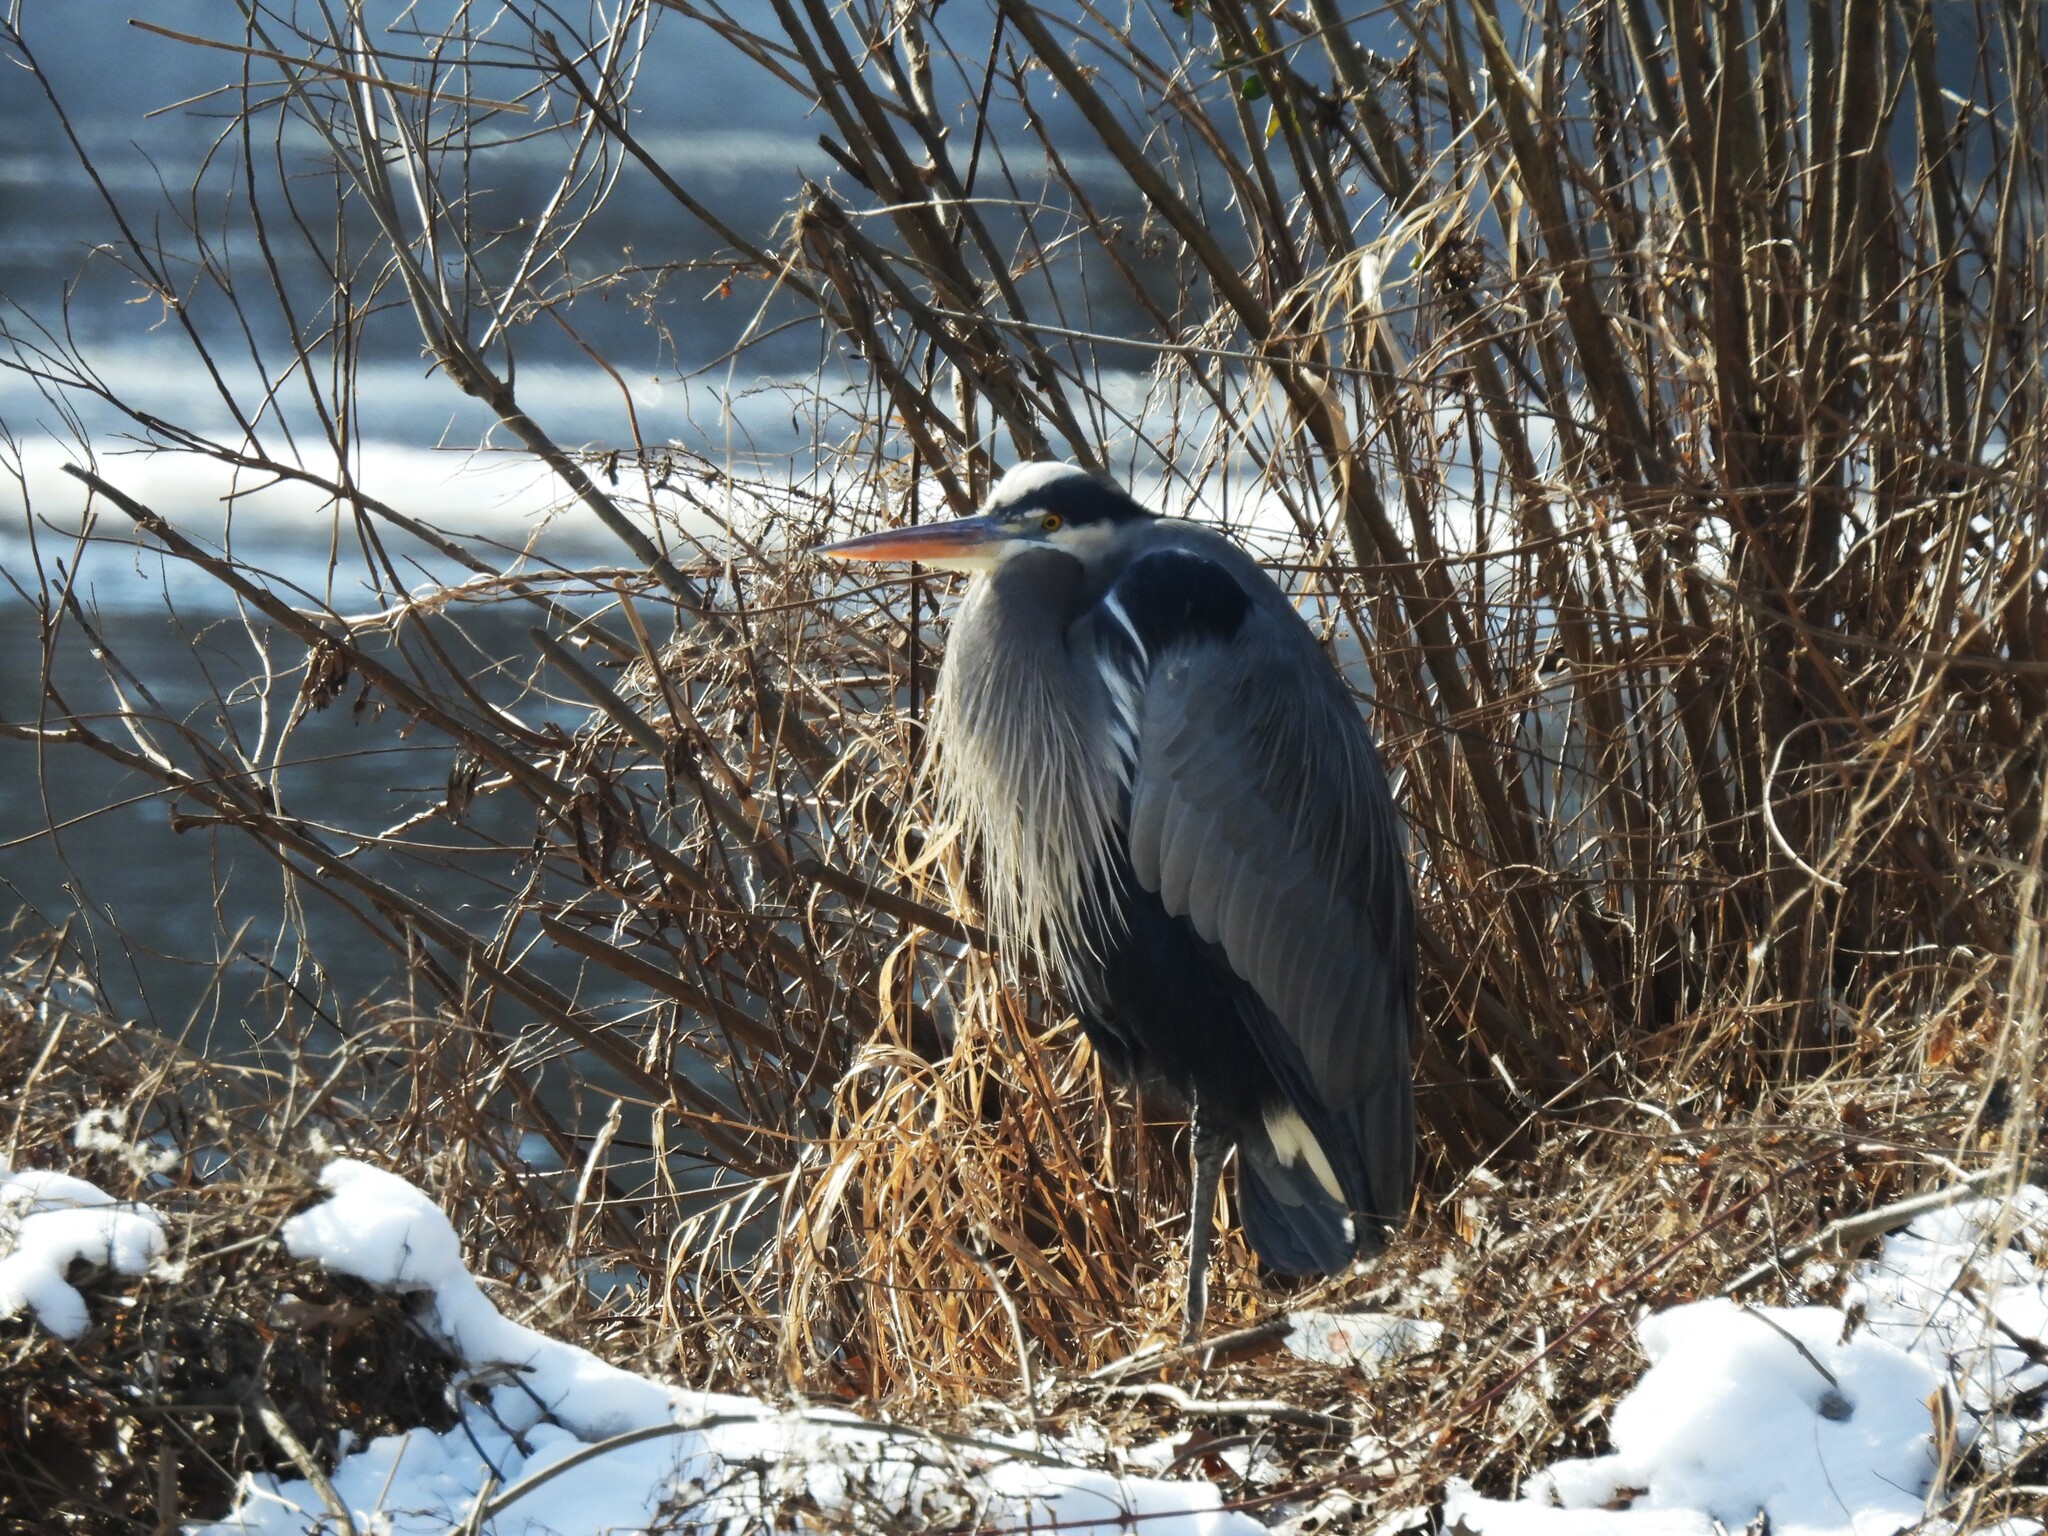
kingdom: Animalia
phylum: Chordata
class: Aves
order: Pelecaniformes
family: Ardeidae
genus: Ardea
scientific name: Ardea herodias
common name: Great blue heron
